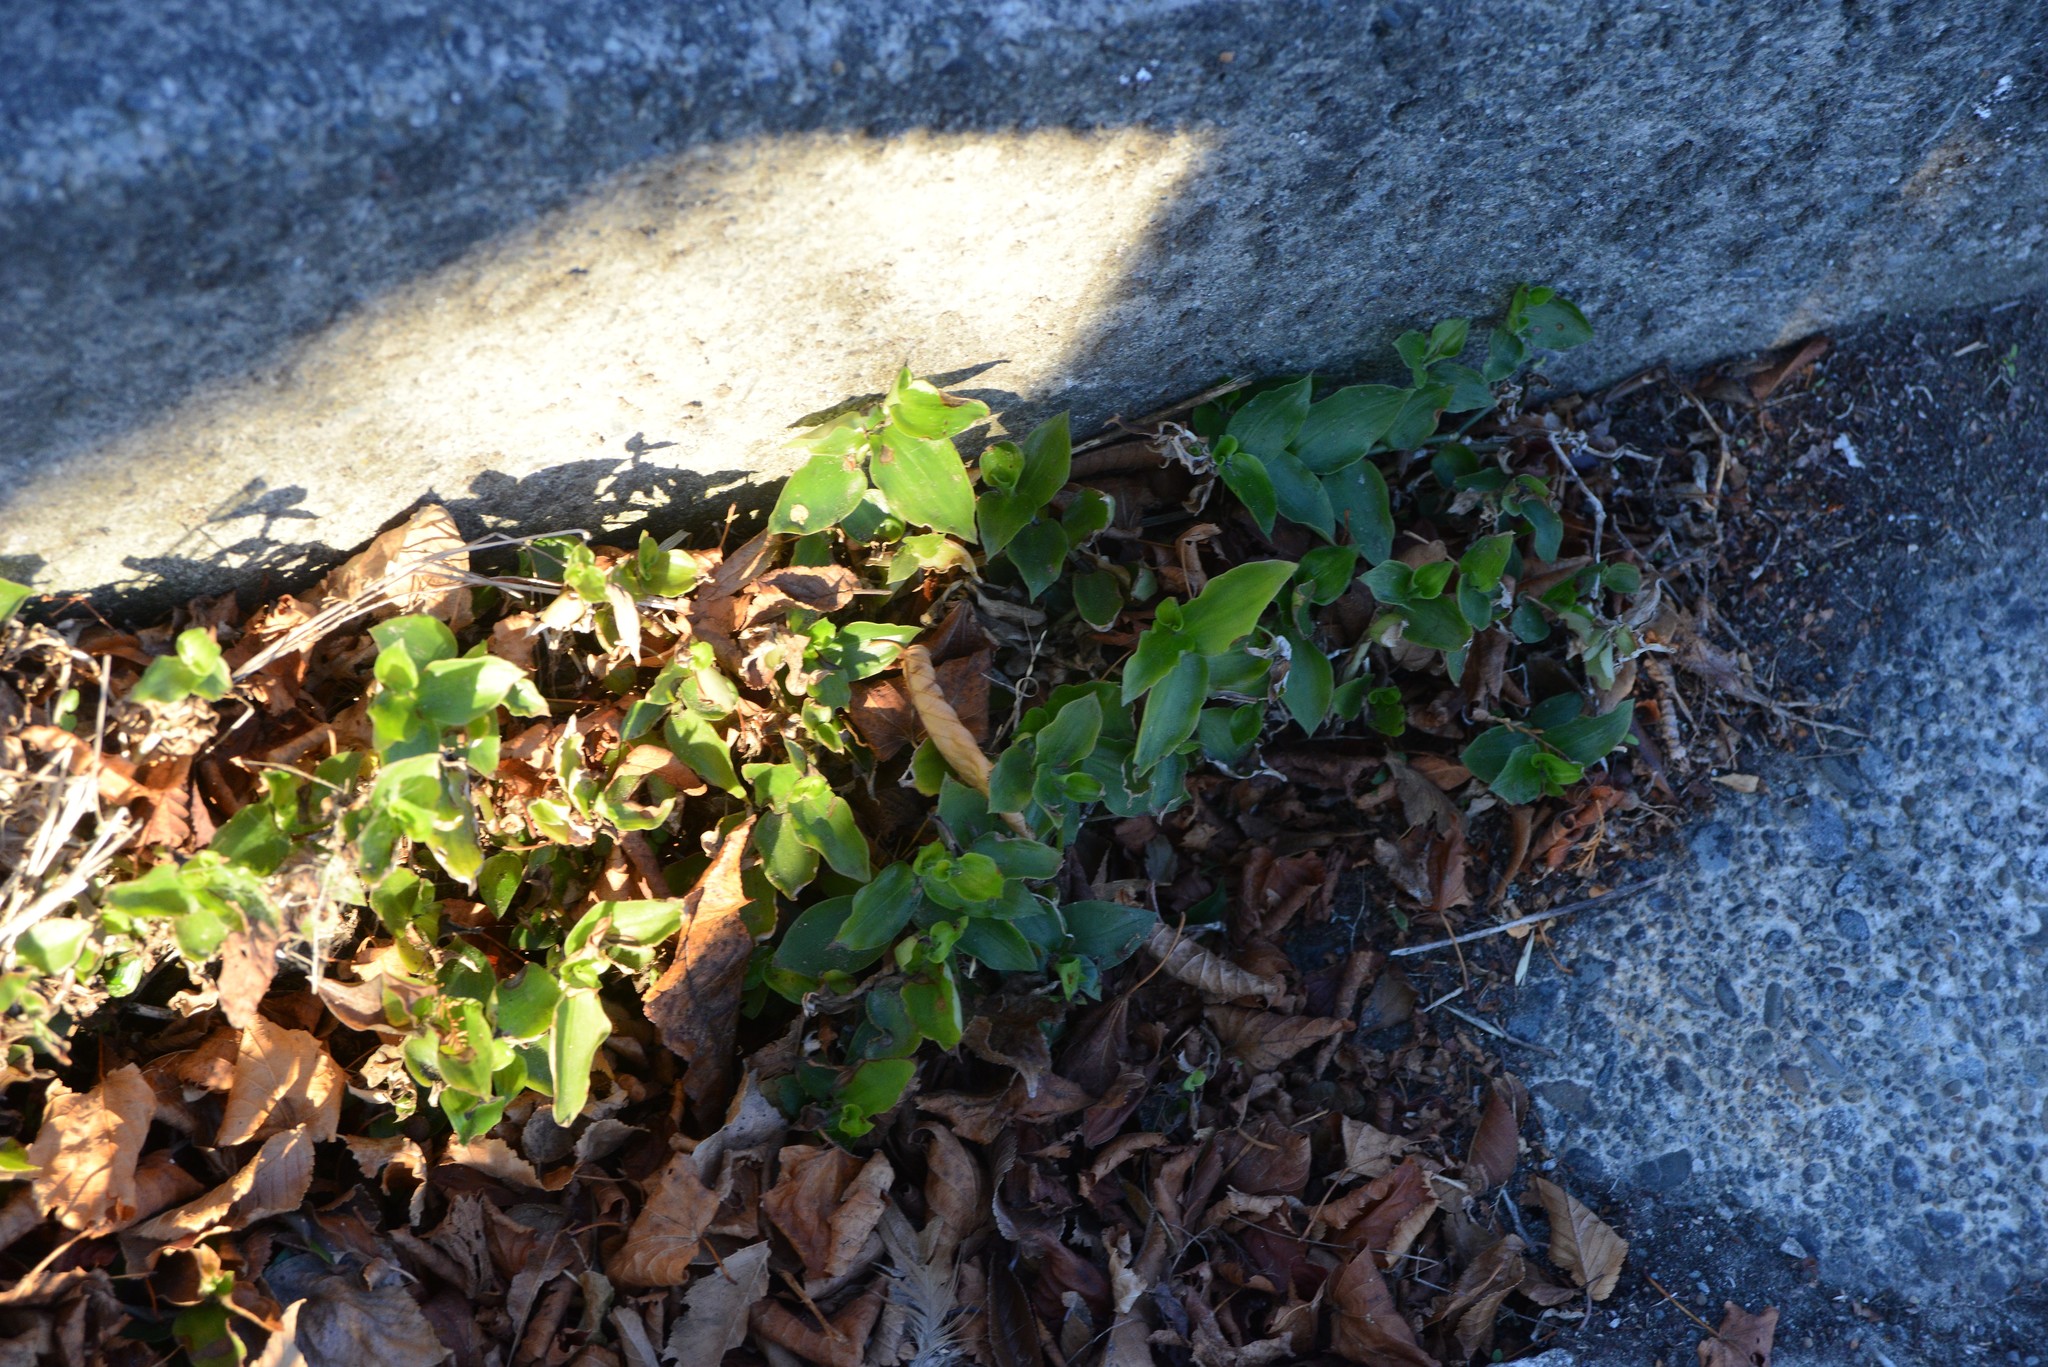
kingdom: Plantae
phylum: Tracheophyta
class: Liliopsida
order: Commelinales
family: Commelinaceae
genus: Tradescantia
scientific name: Tradescantia fluminensis
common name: Wandering-jew
